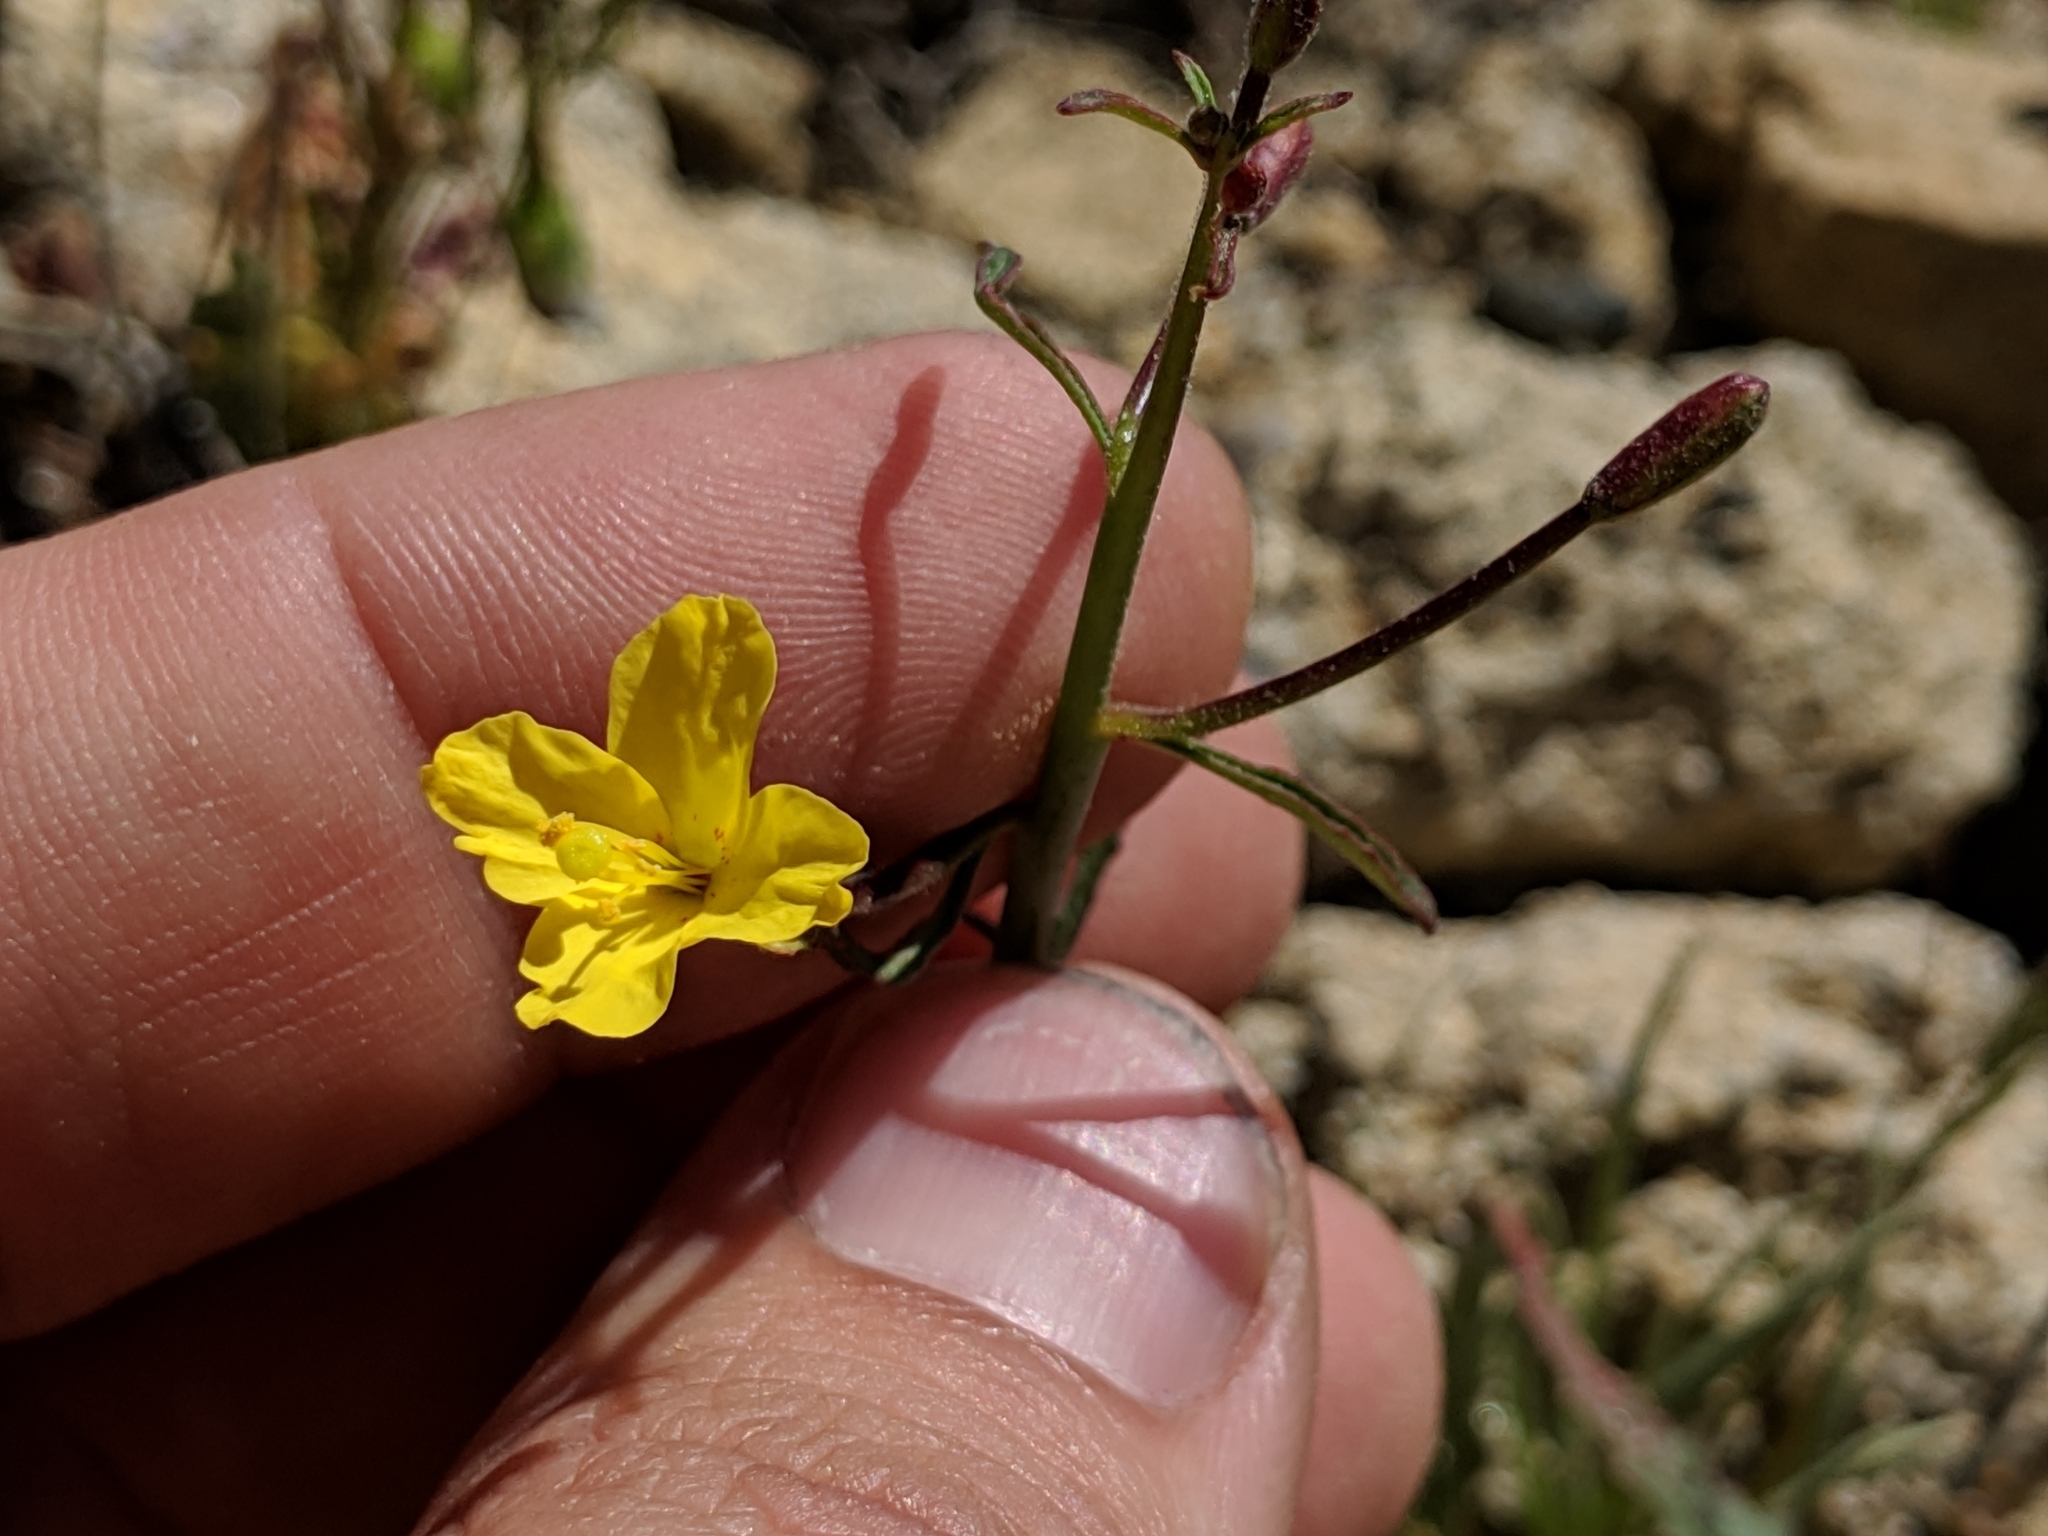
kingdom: Plantae
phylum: Tracheophyta
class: Magnoliopsida
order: Myrtales
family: Onagraceae
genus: Eulobus
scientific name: Eulobus californicus
